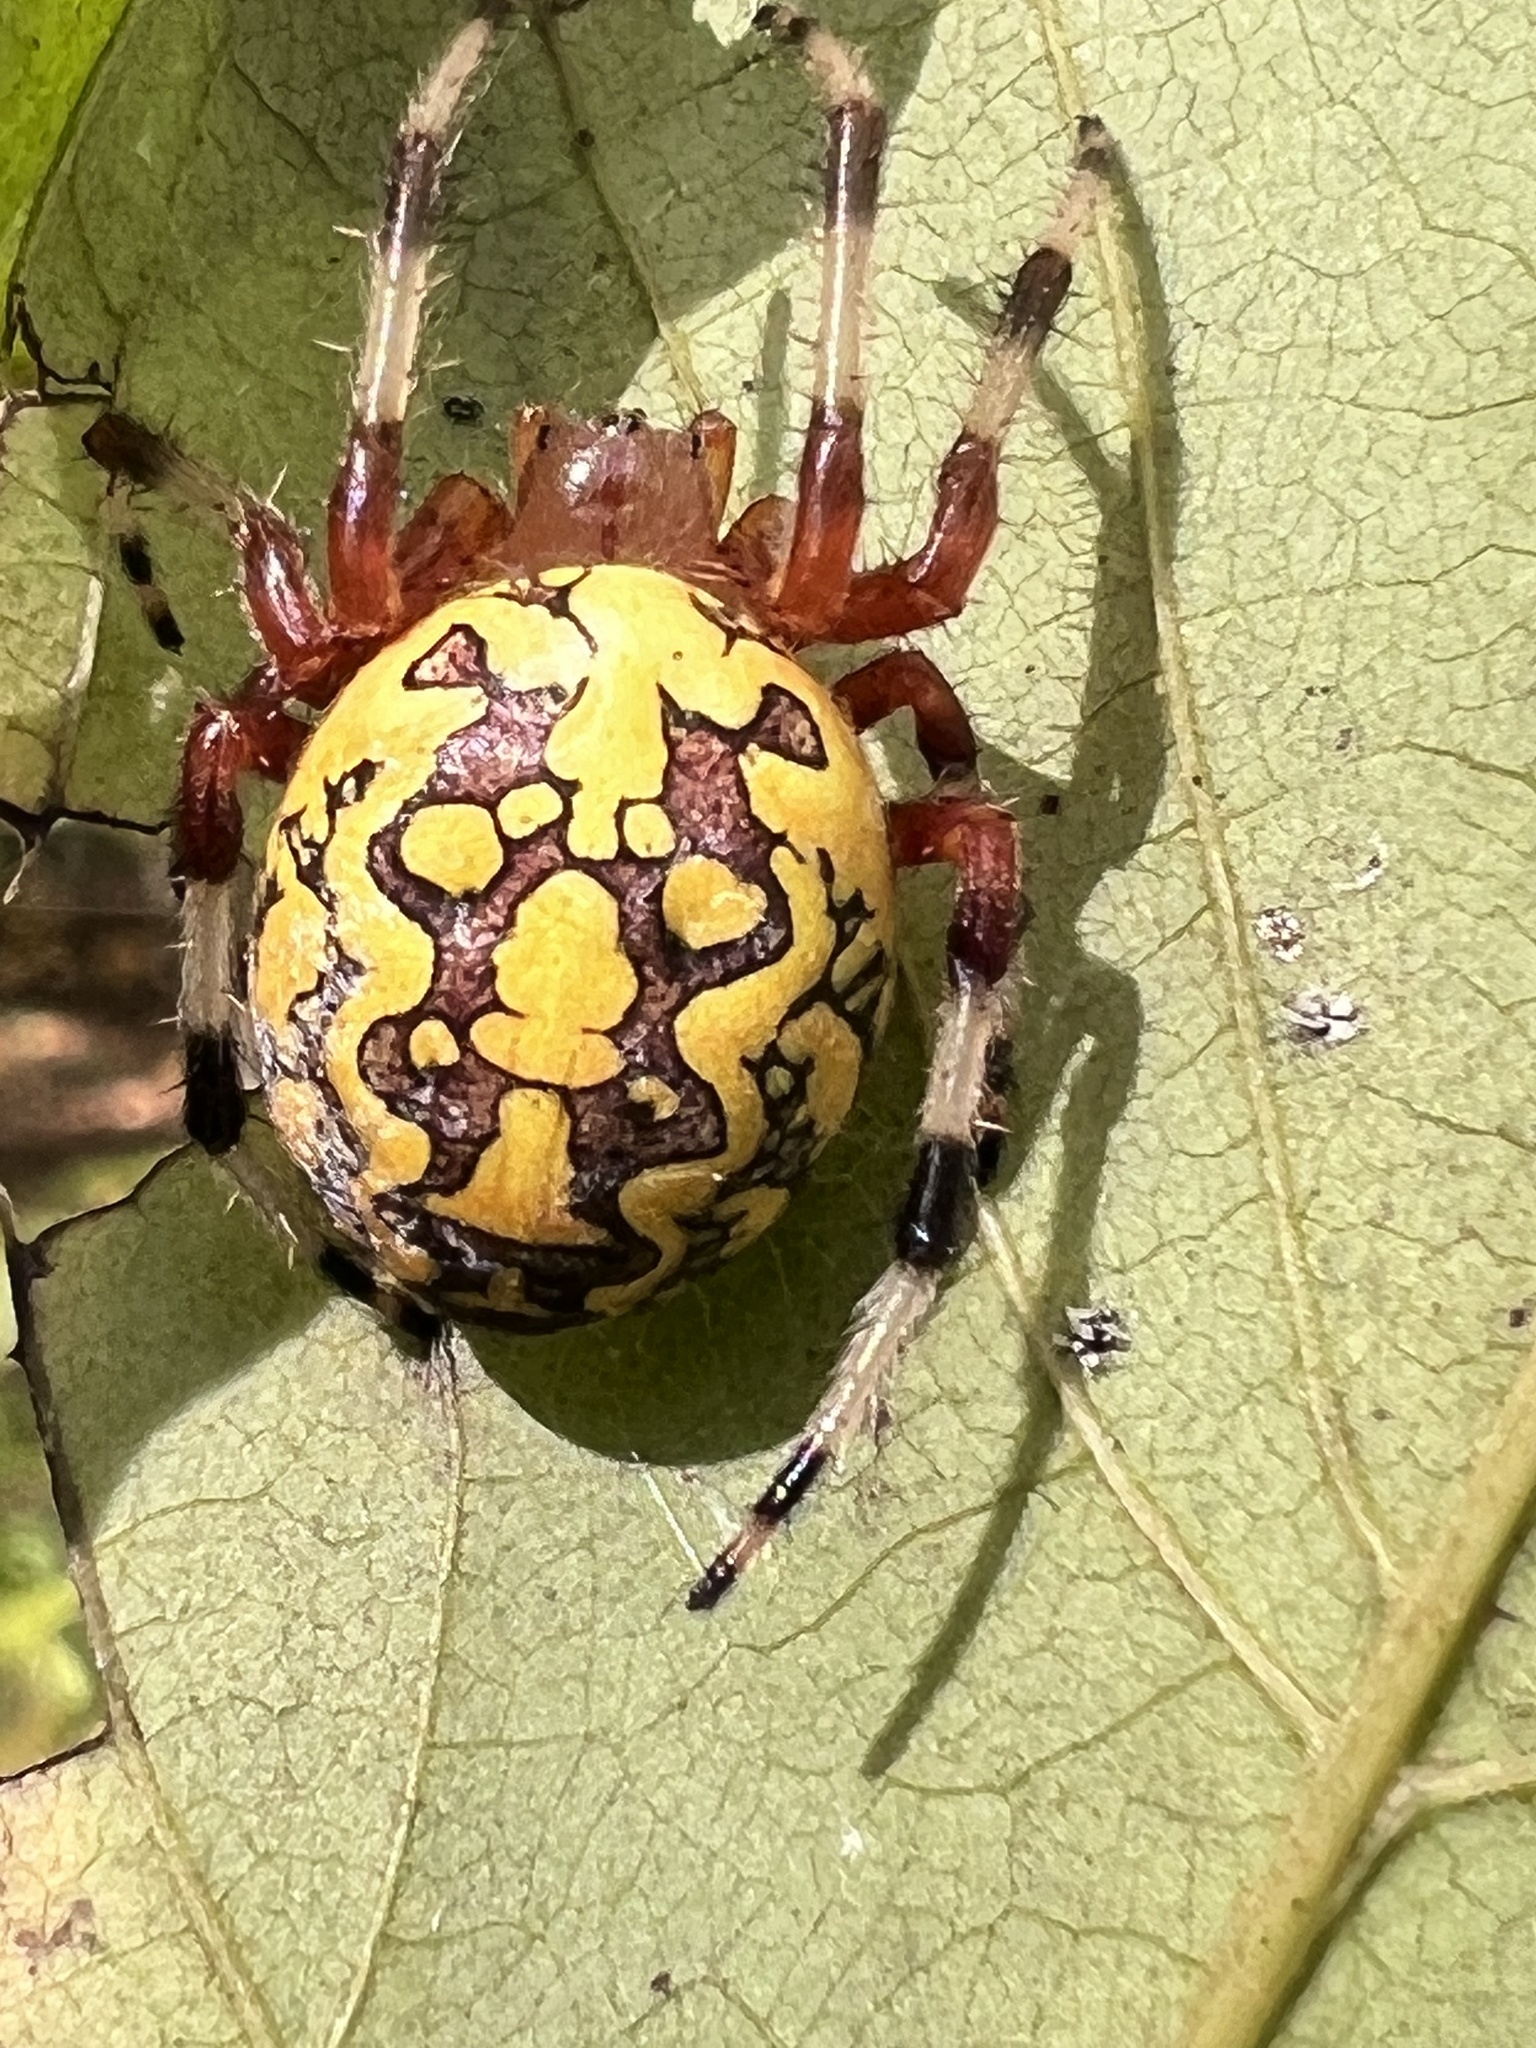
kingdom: Animalia
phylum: Arthropoda
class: Arachnida
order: Araneae
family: Araneidae
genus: Araneus
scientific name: Araneus marmoreus
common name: Marbled orbweaver
